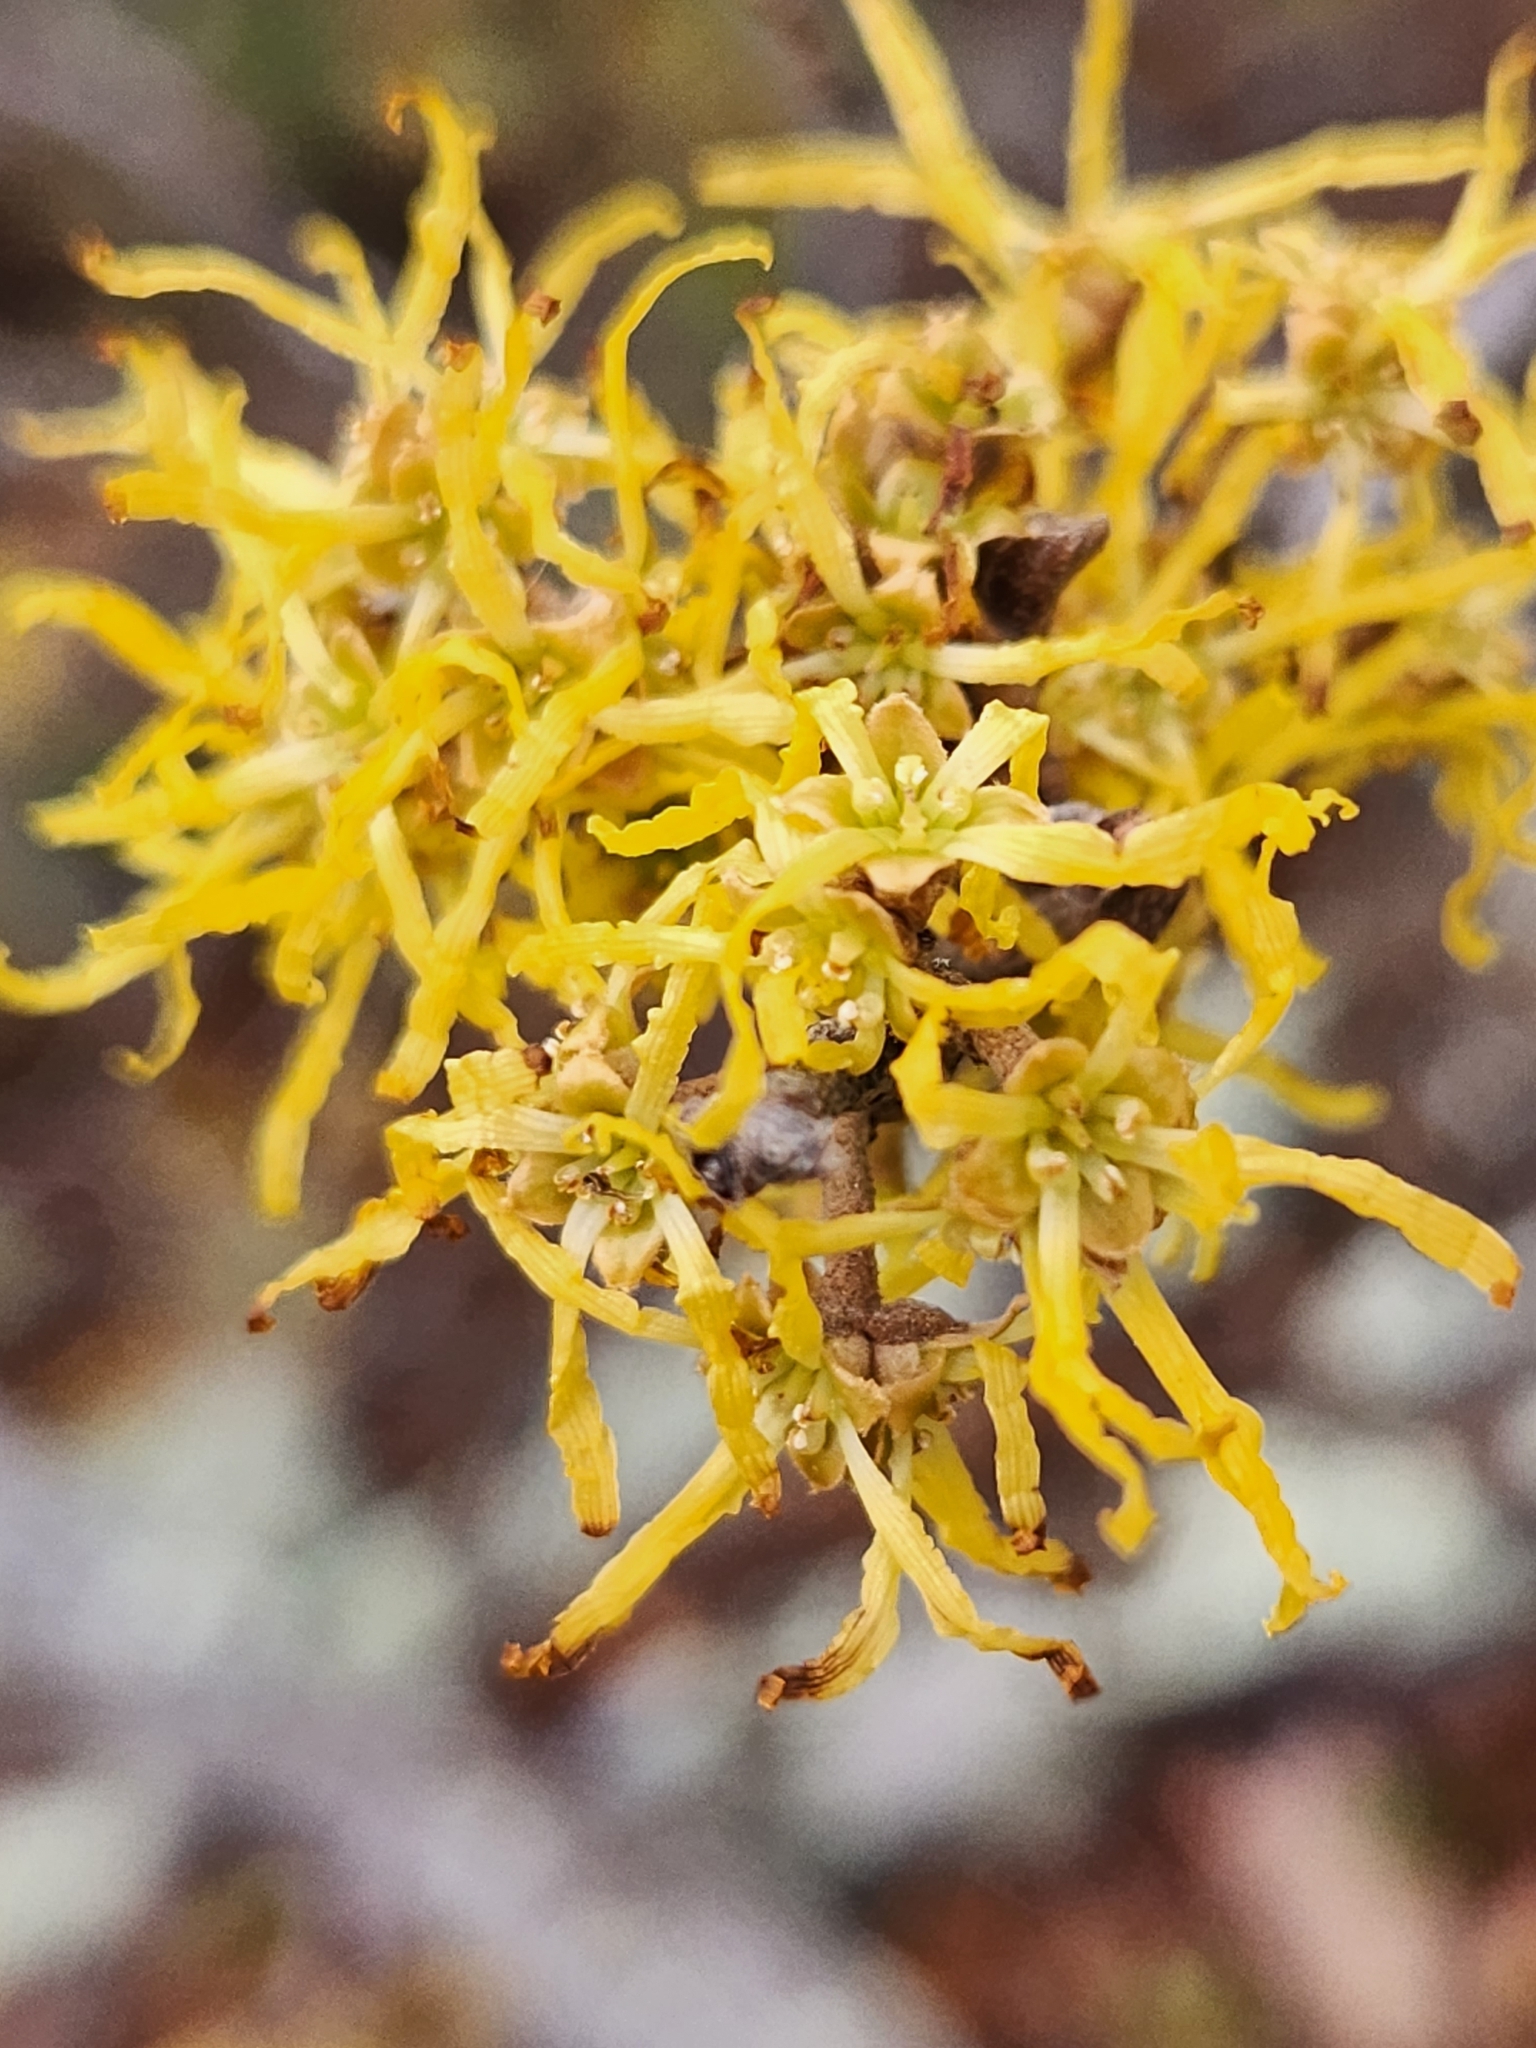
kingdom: Plantae
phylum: Tracheophyta
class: Magnoliopsida
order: Saxifragales
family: Hamamelidaceae
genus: Hamamelis
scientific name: Hamamelis virginiana
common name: Witch-hazel
